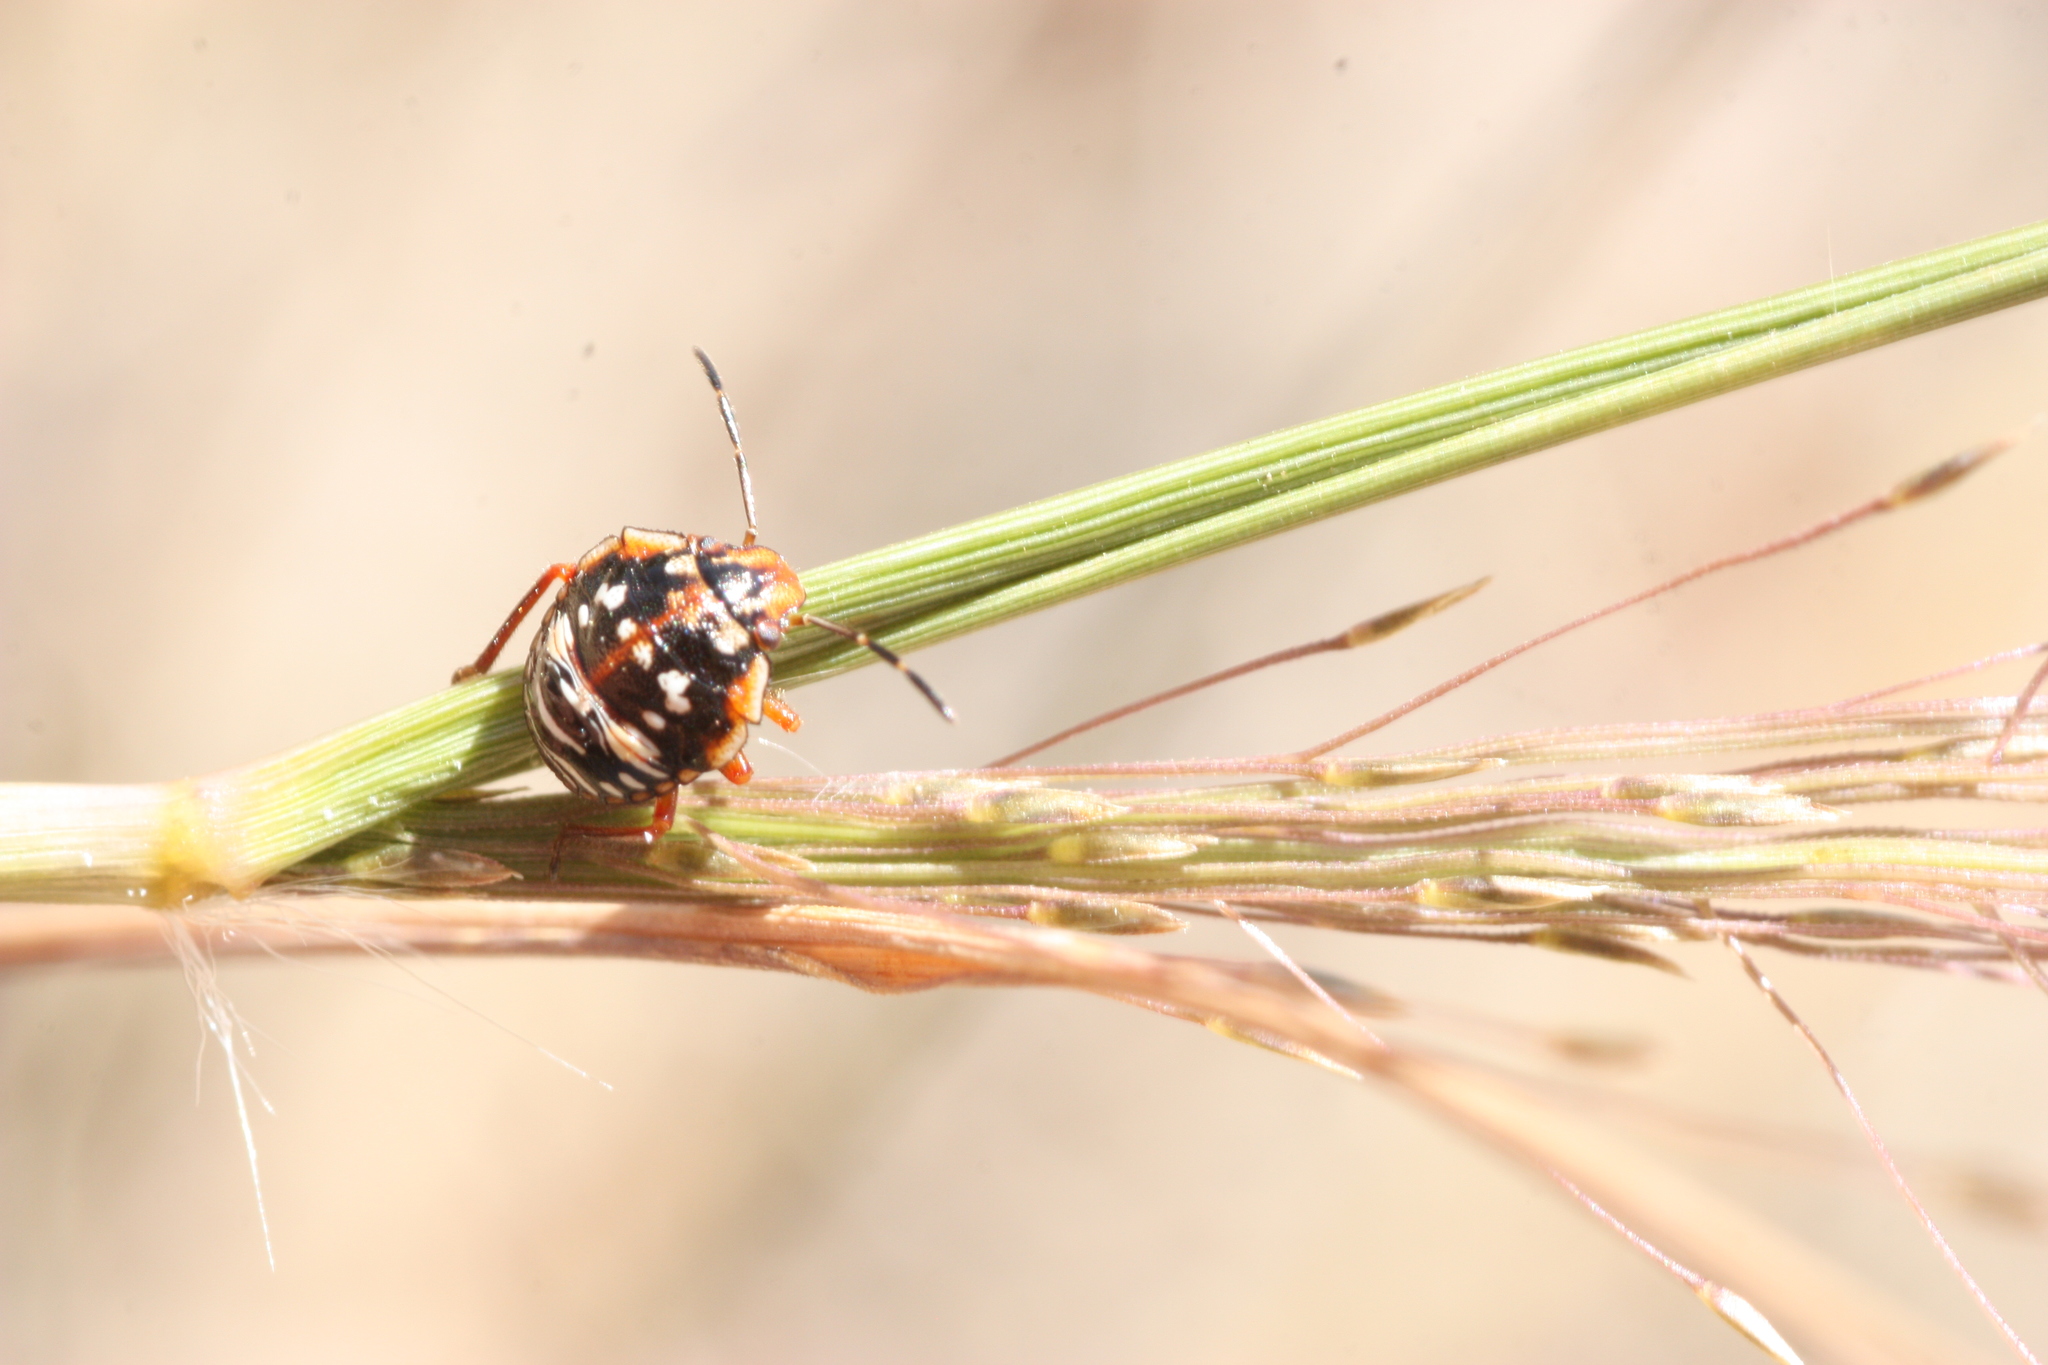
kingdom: Animalia
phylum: Arthropoda
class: Insecta
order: Hemiptera
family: Pentatomidae
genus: Thyanta
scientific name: Thyanta accerra
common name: Stink bug
